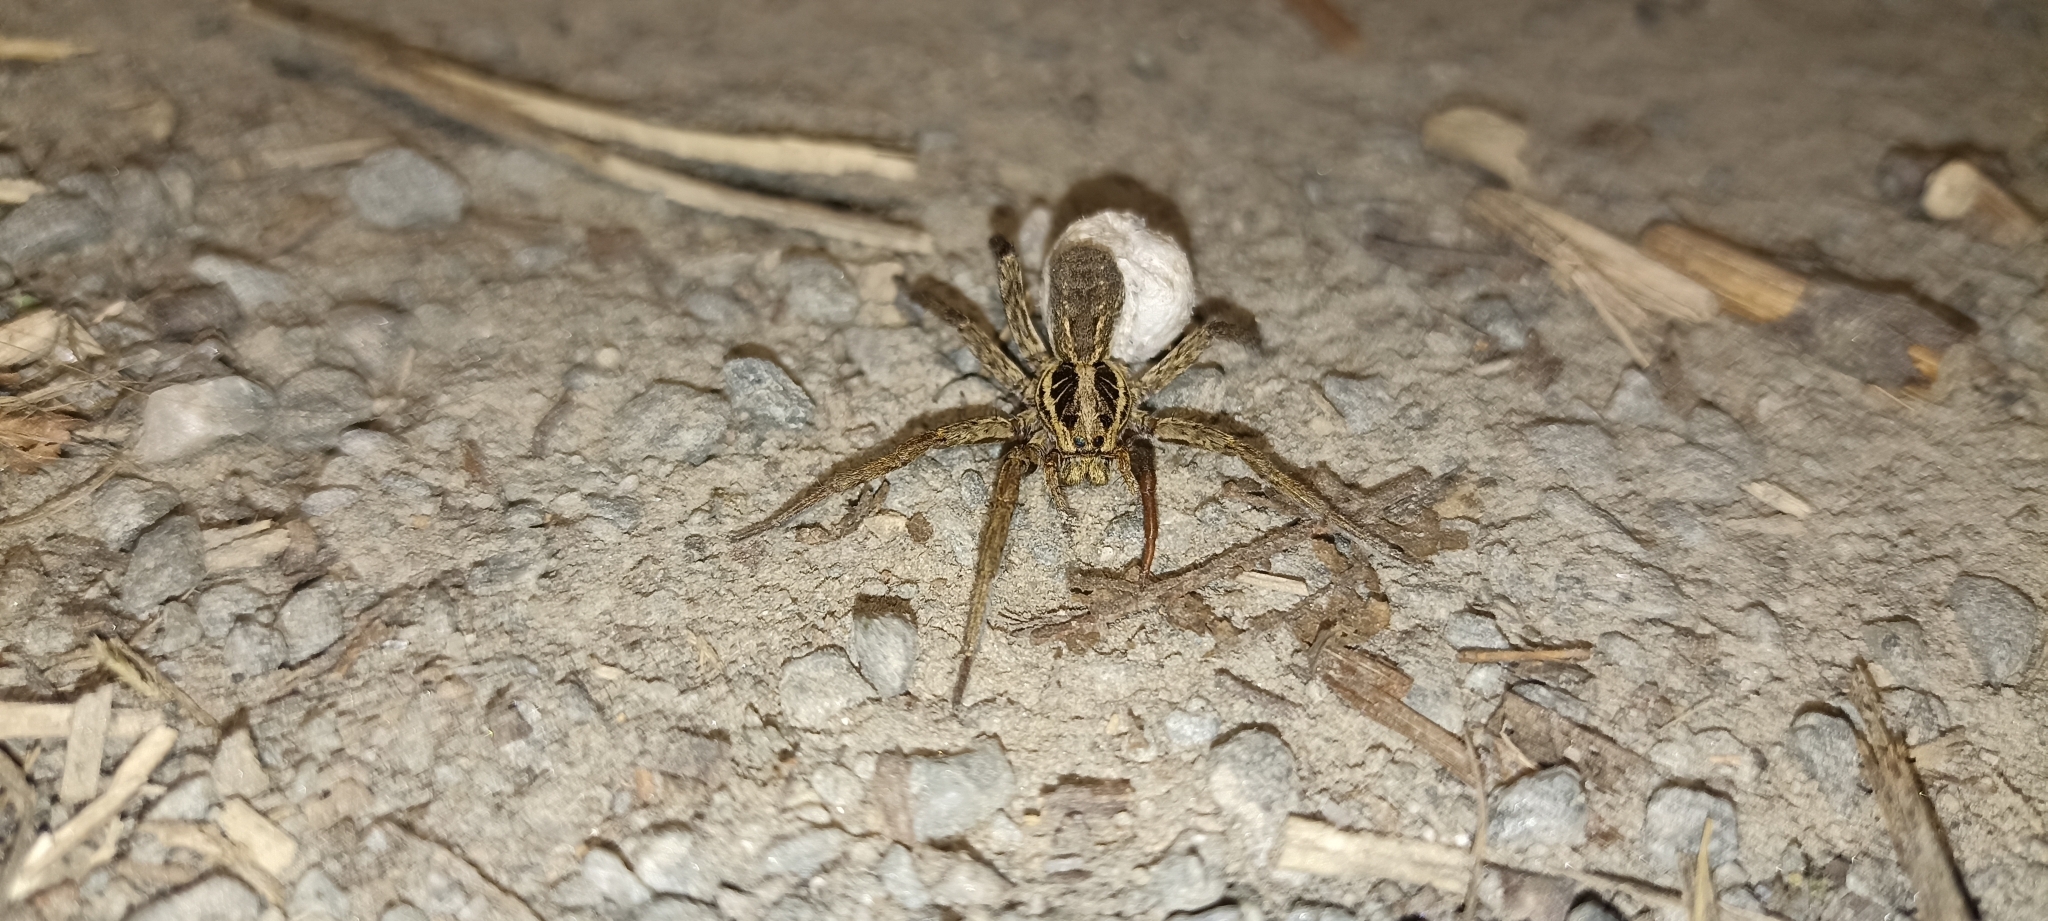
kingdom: Animalia
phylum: Arthropoda
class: Arachnida
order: Araneae
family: Lycosidae
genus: Hogna
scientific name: Hogna radiata
